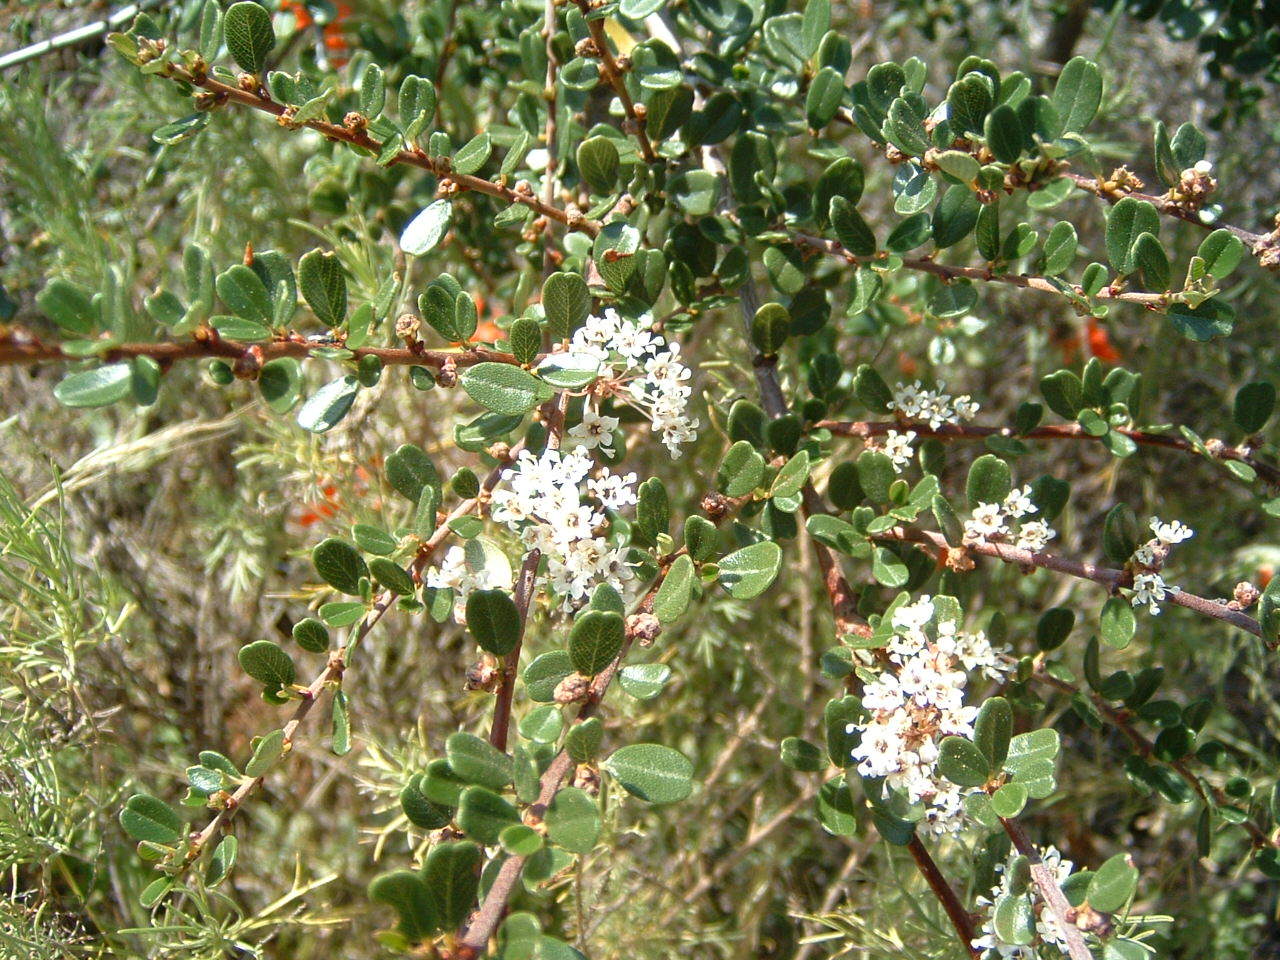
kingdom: Plantae
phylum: Tracheophyta
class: Magnoliopsida
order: Rosales
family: Rhamnaceae
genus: Ceanothus
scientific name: Ceanothus megacarpus
